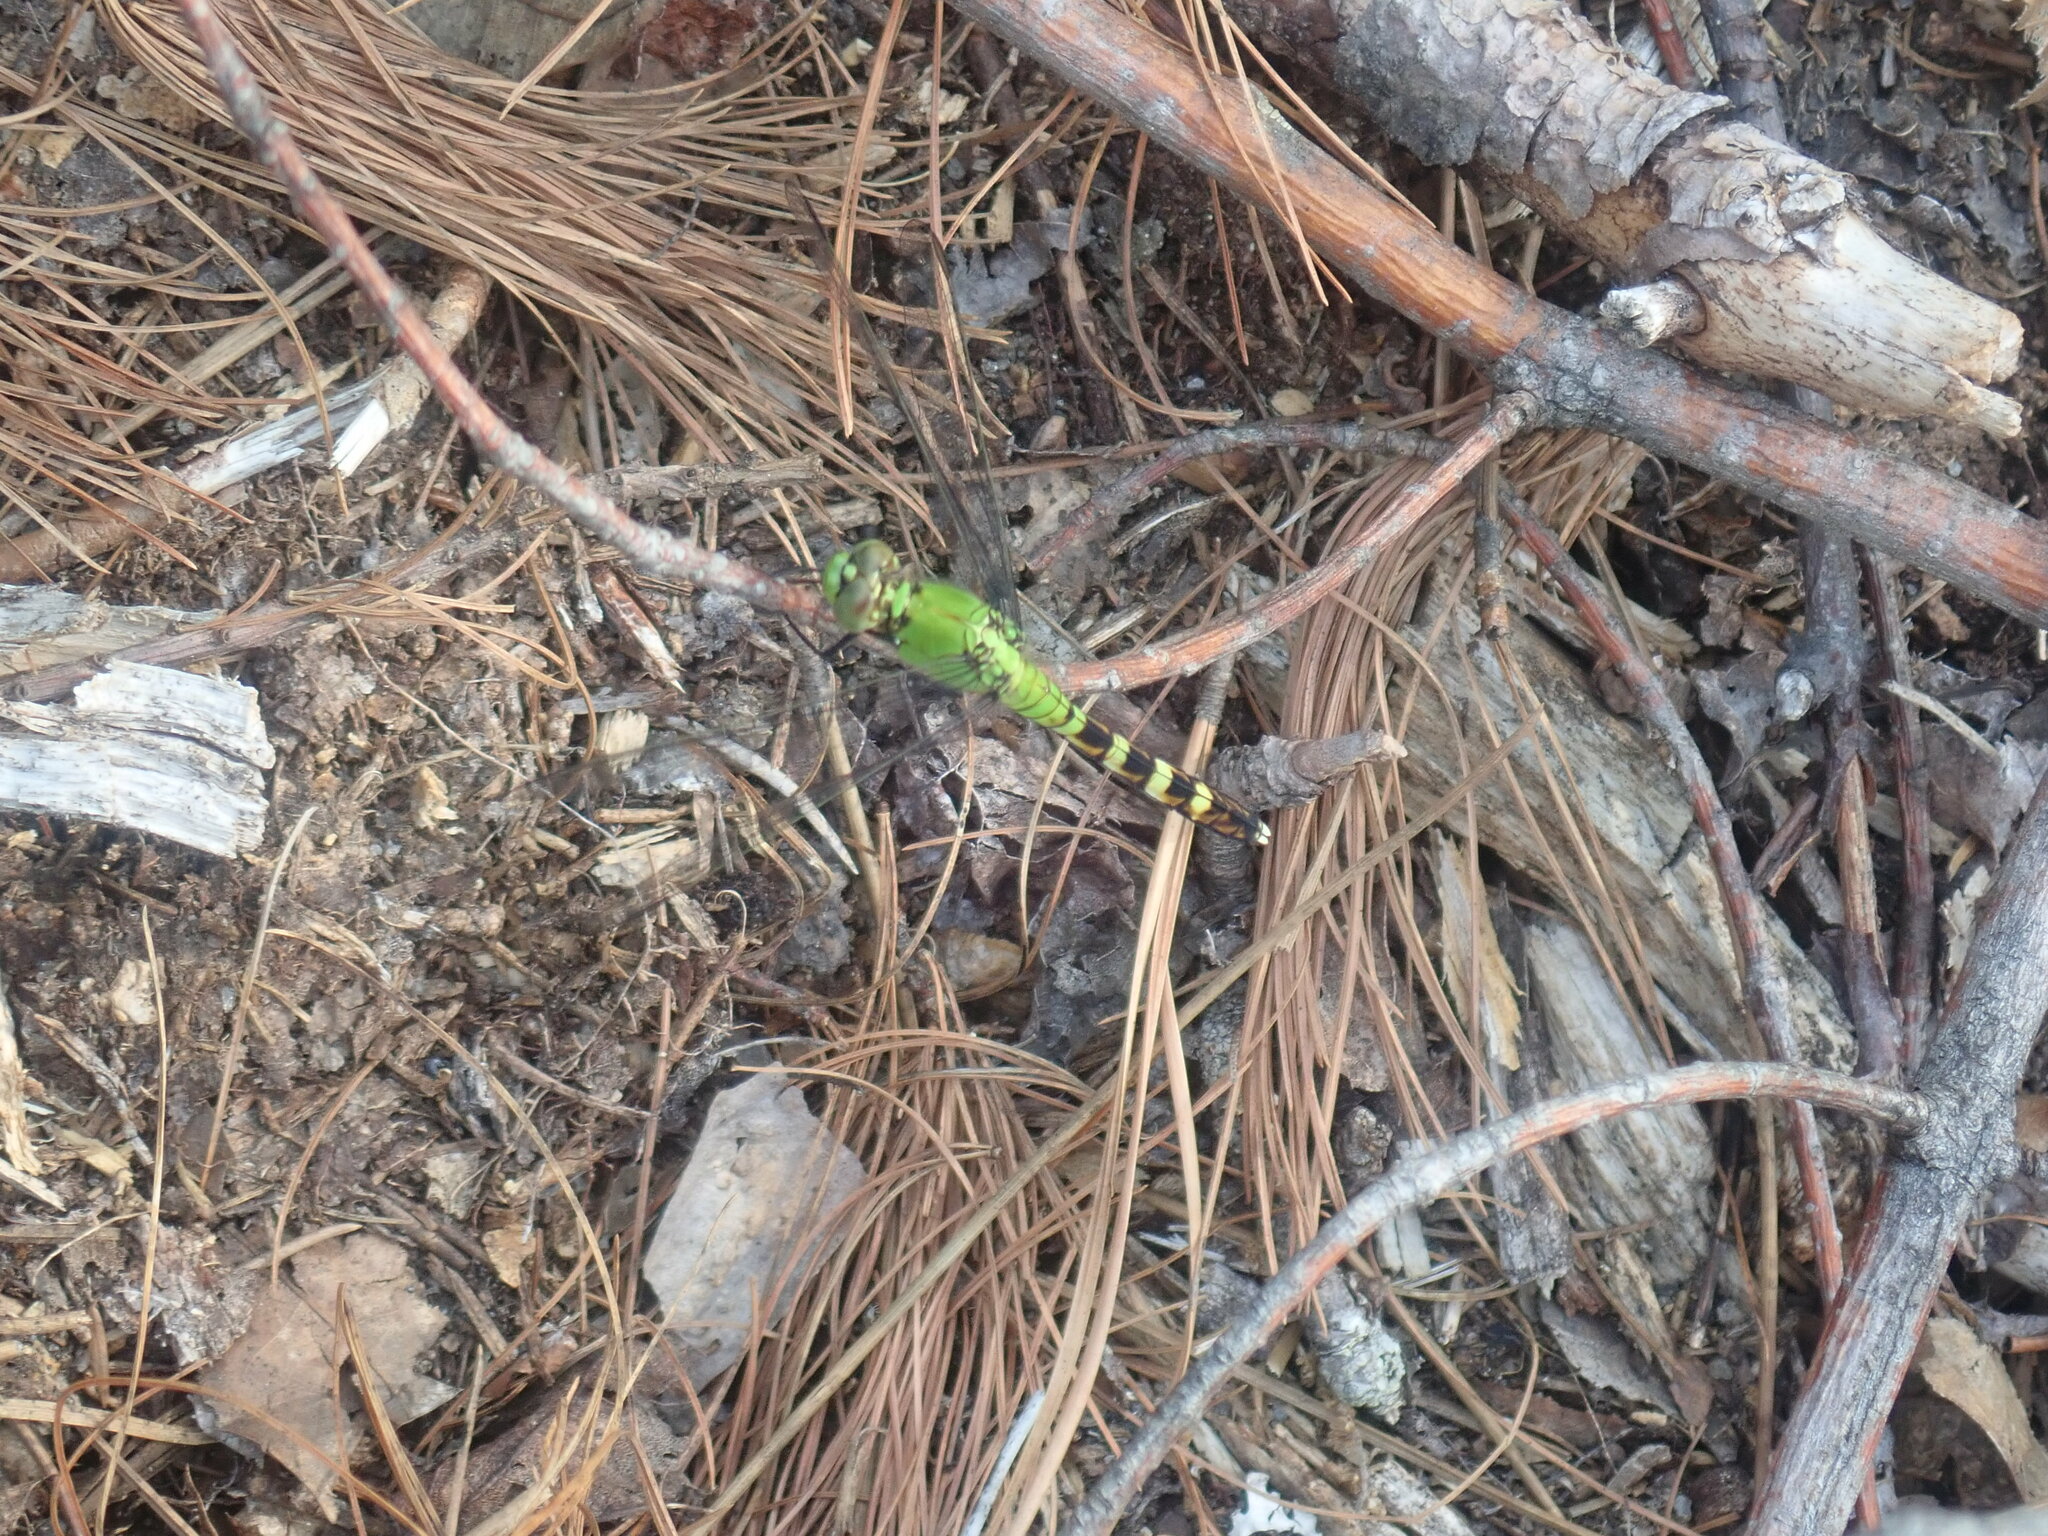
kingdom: Animalia
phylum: Arthropoda
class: Insecta
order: Odonata
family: Libellulidae
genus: Erythemis
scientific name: Erythemis simplicicollis
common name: Eastern pondhawk
